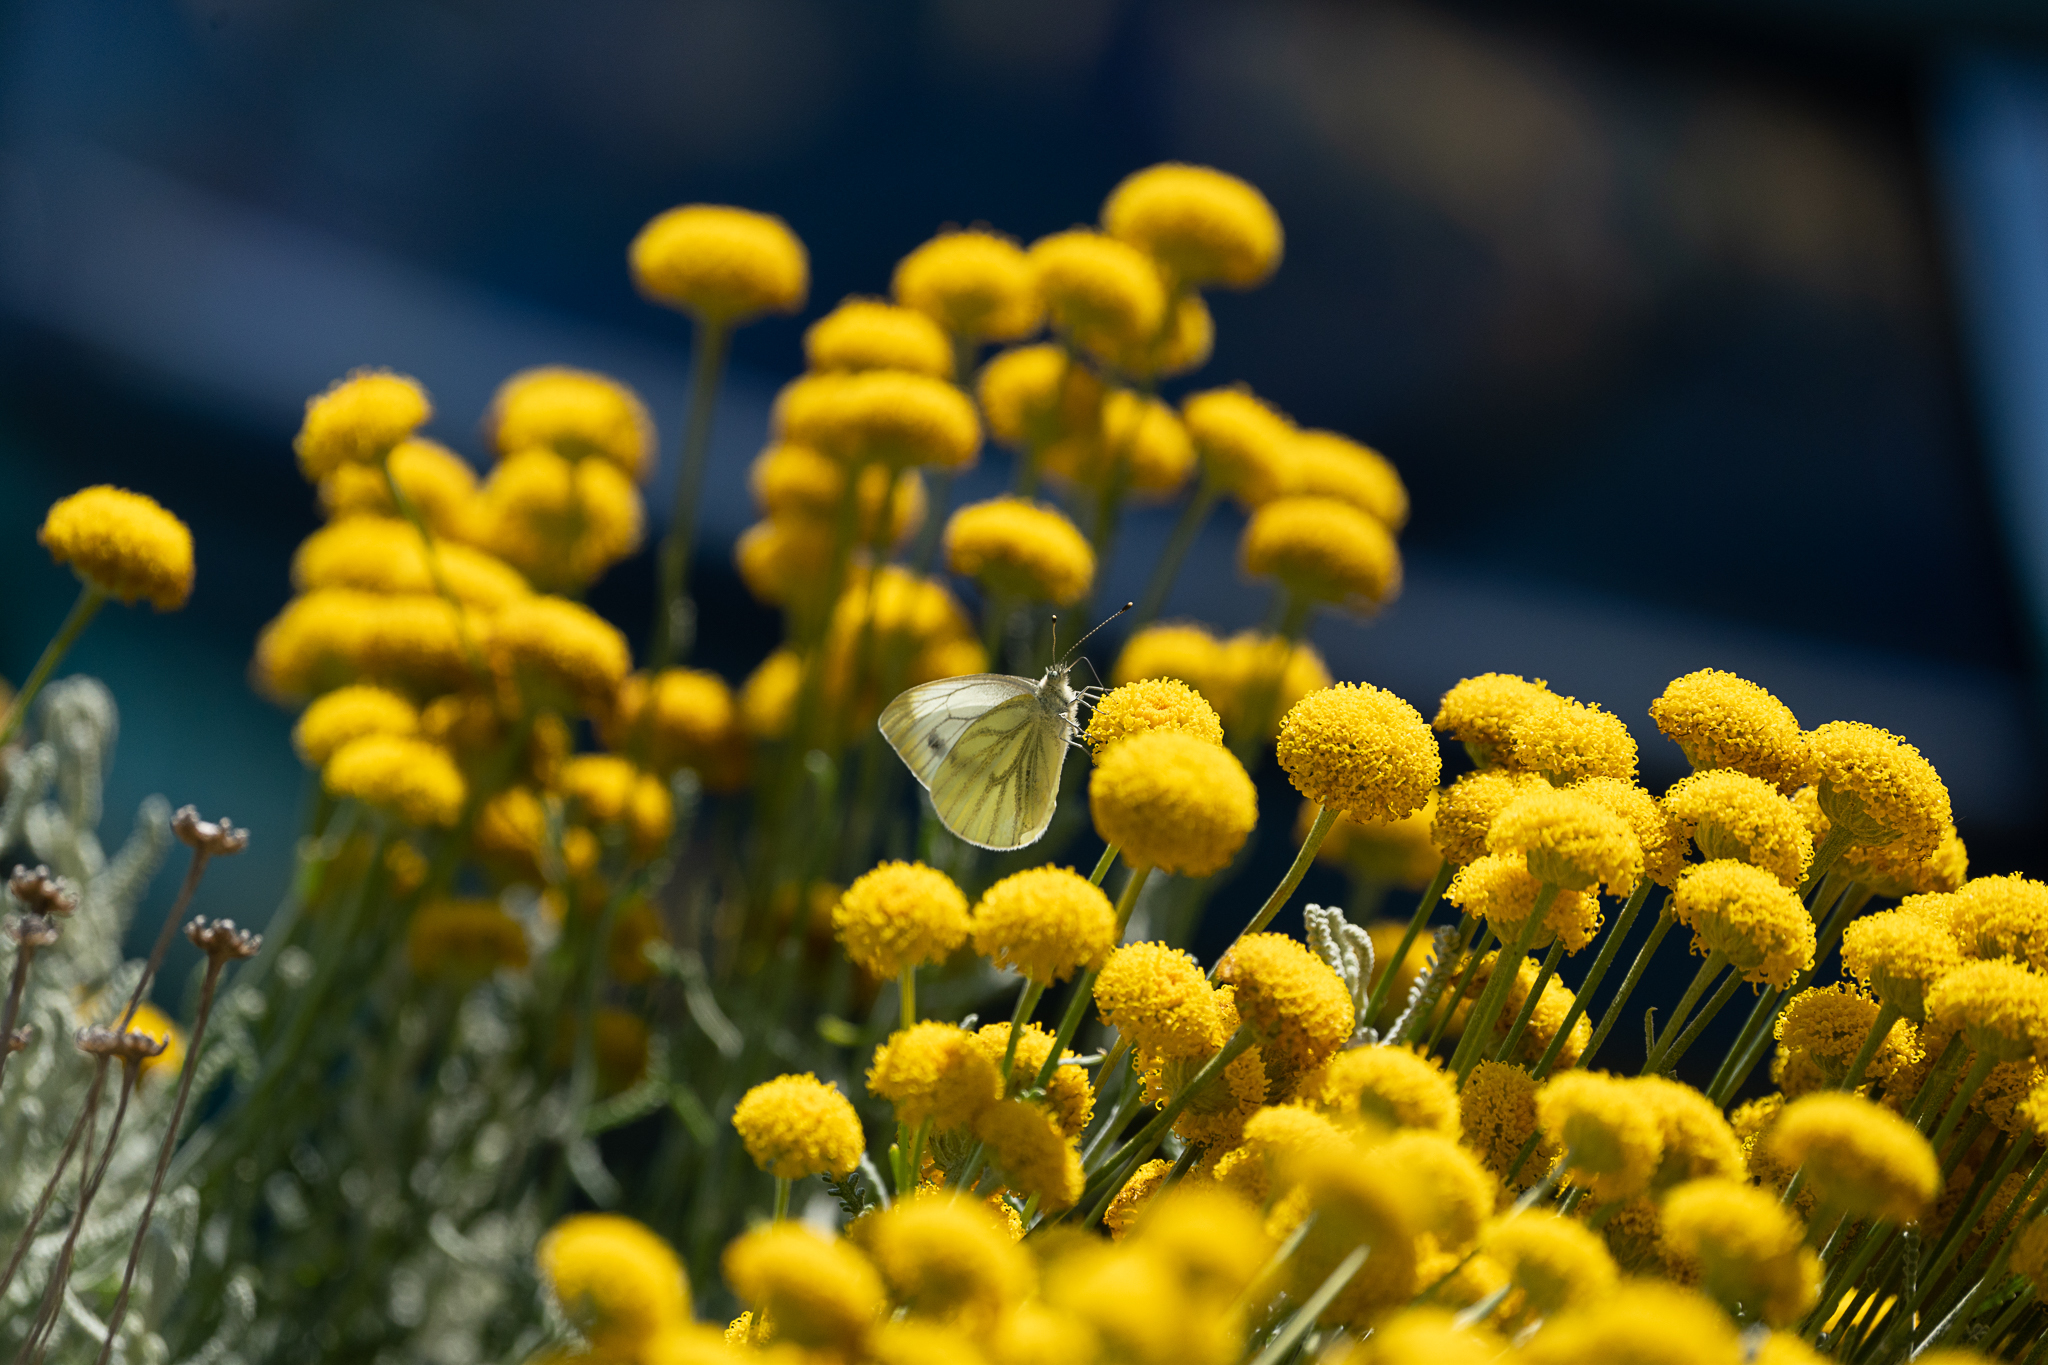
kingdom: Animalia
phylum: Arthropoda
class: Insecta
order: Lepidoptera
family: Pieridae
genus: Pieris
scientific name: Pieris napi
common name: Green-veined white
